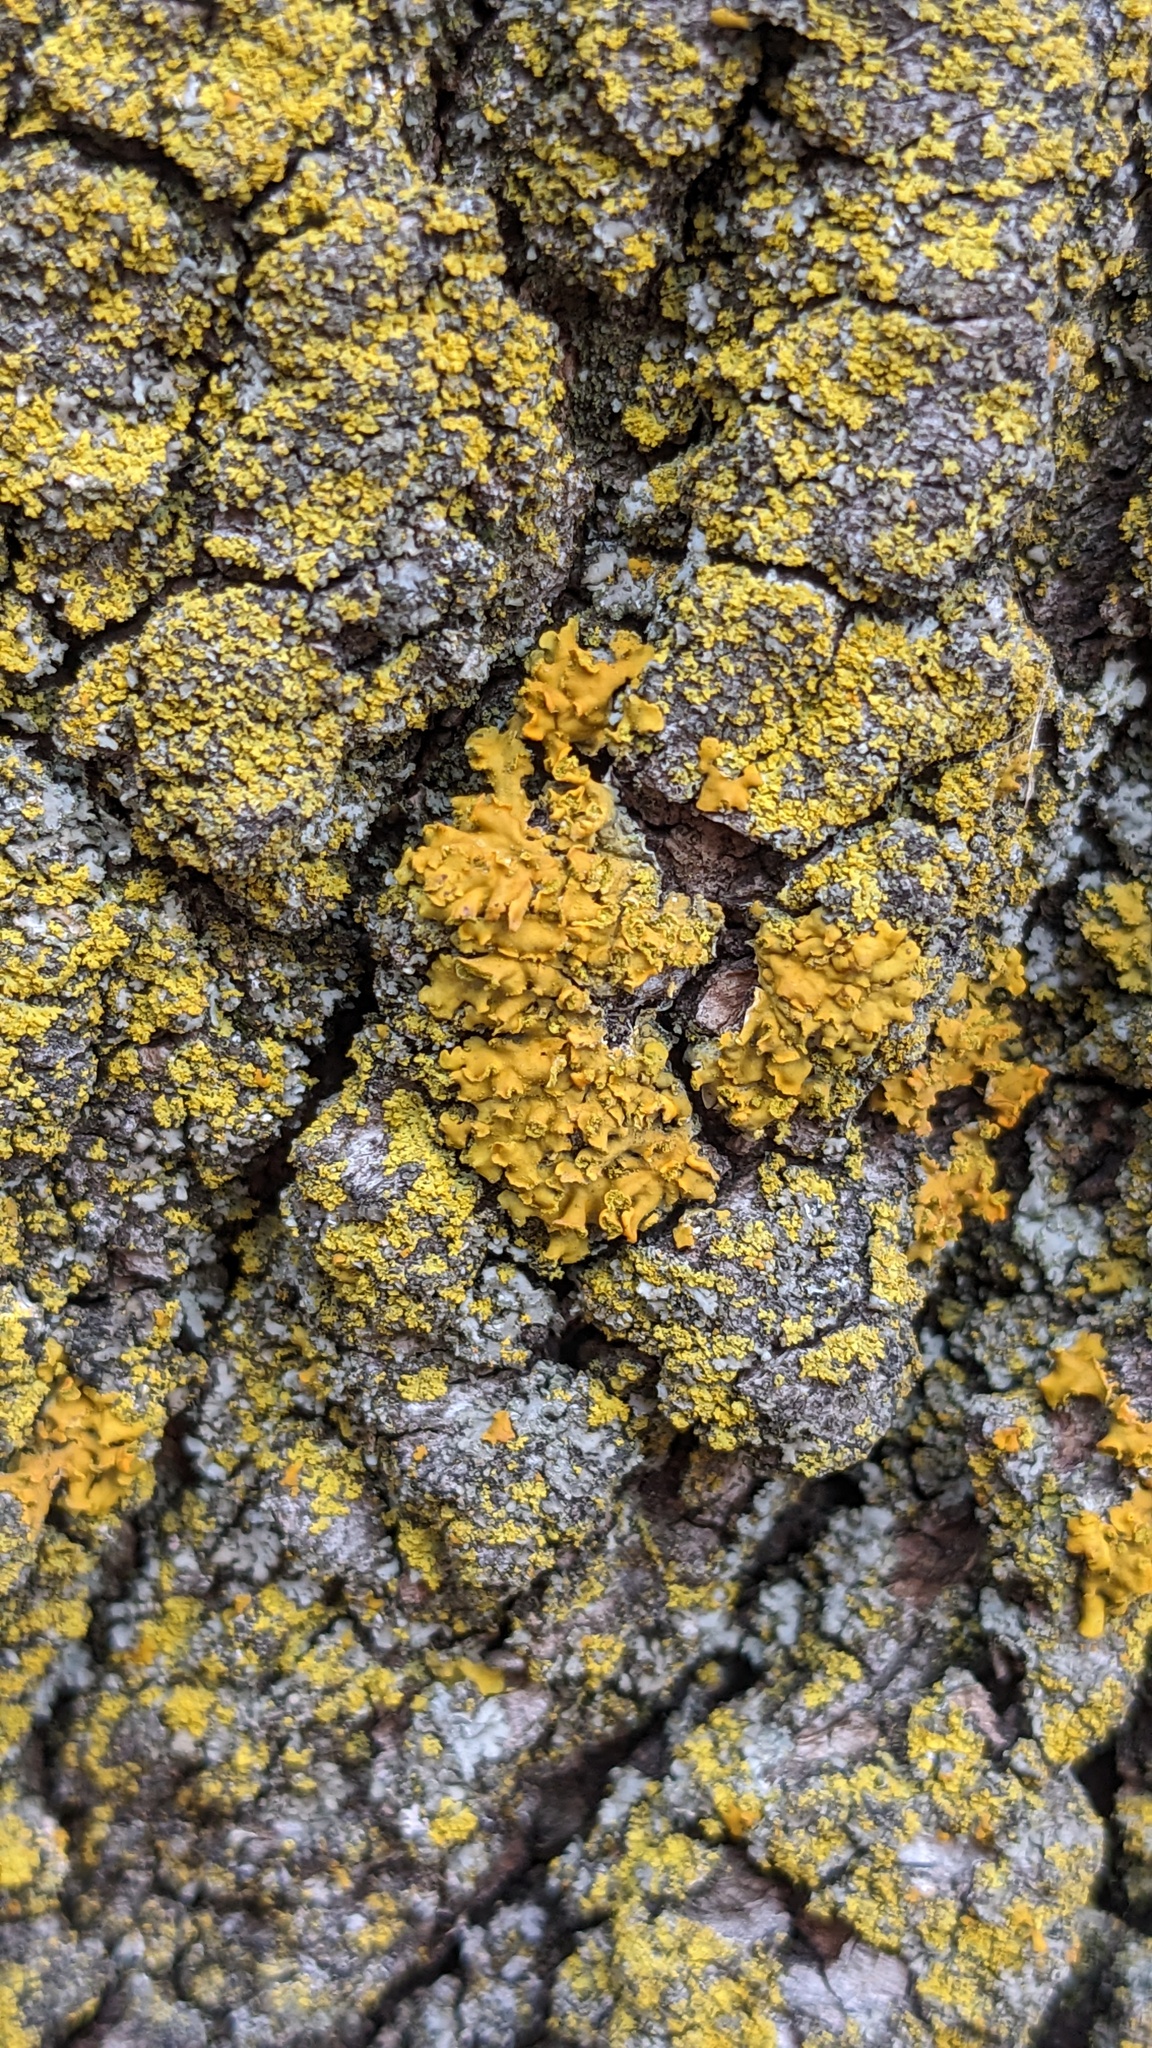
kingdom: Fungi
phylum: Ascomycota
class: Lecanoromycetes
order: Teloschistales
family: Teloschistaceae
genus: Oxneria
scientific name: Oxneria fallax
